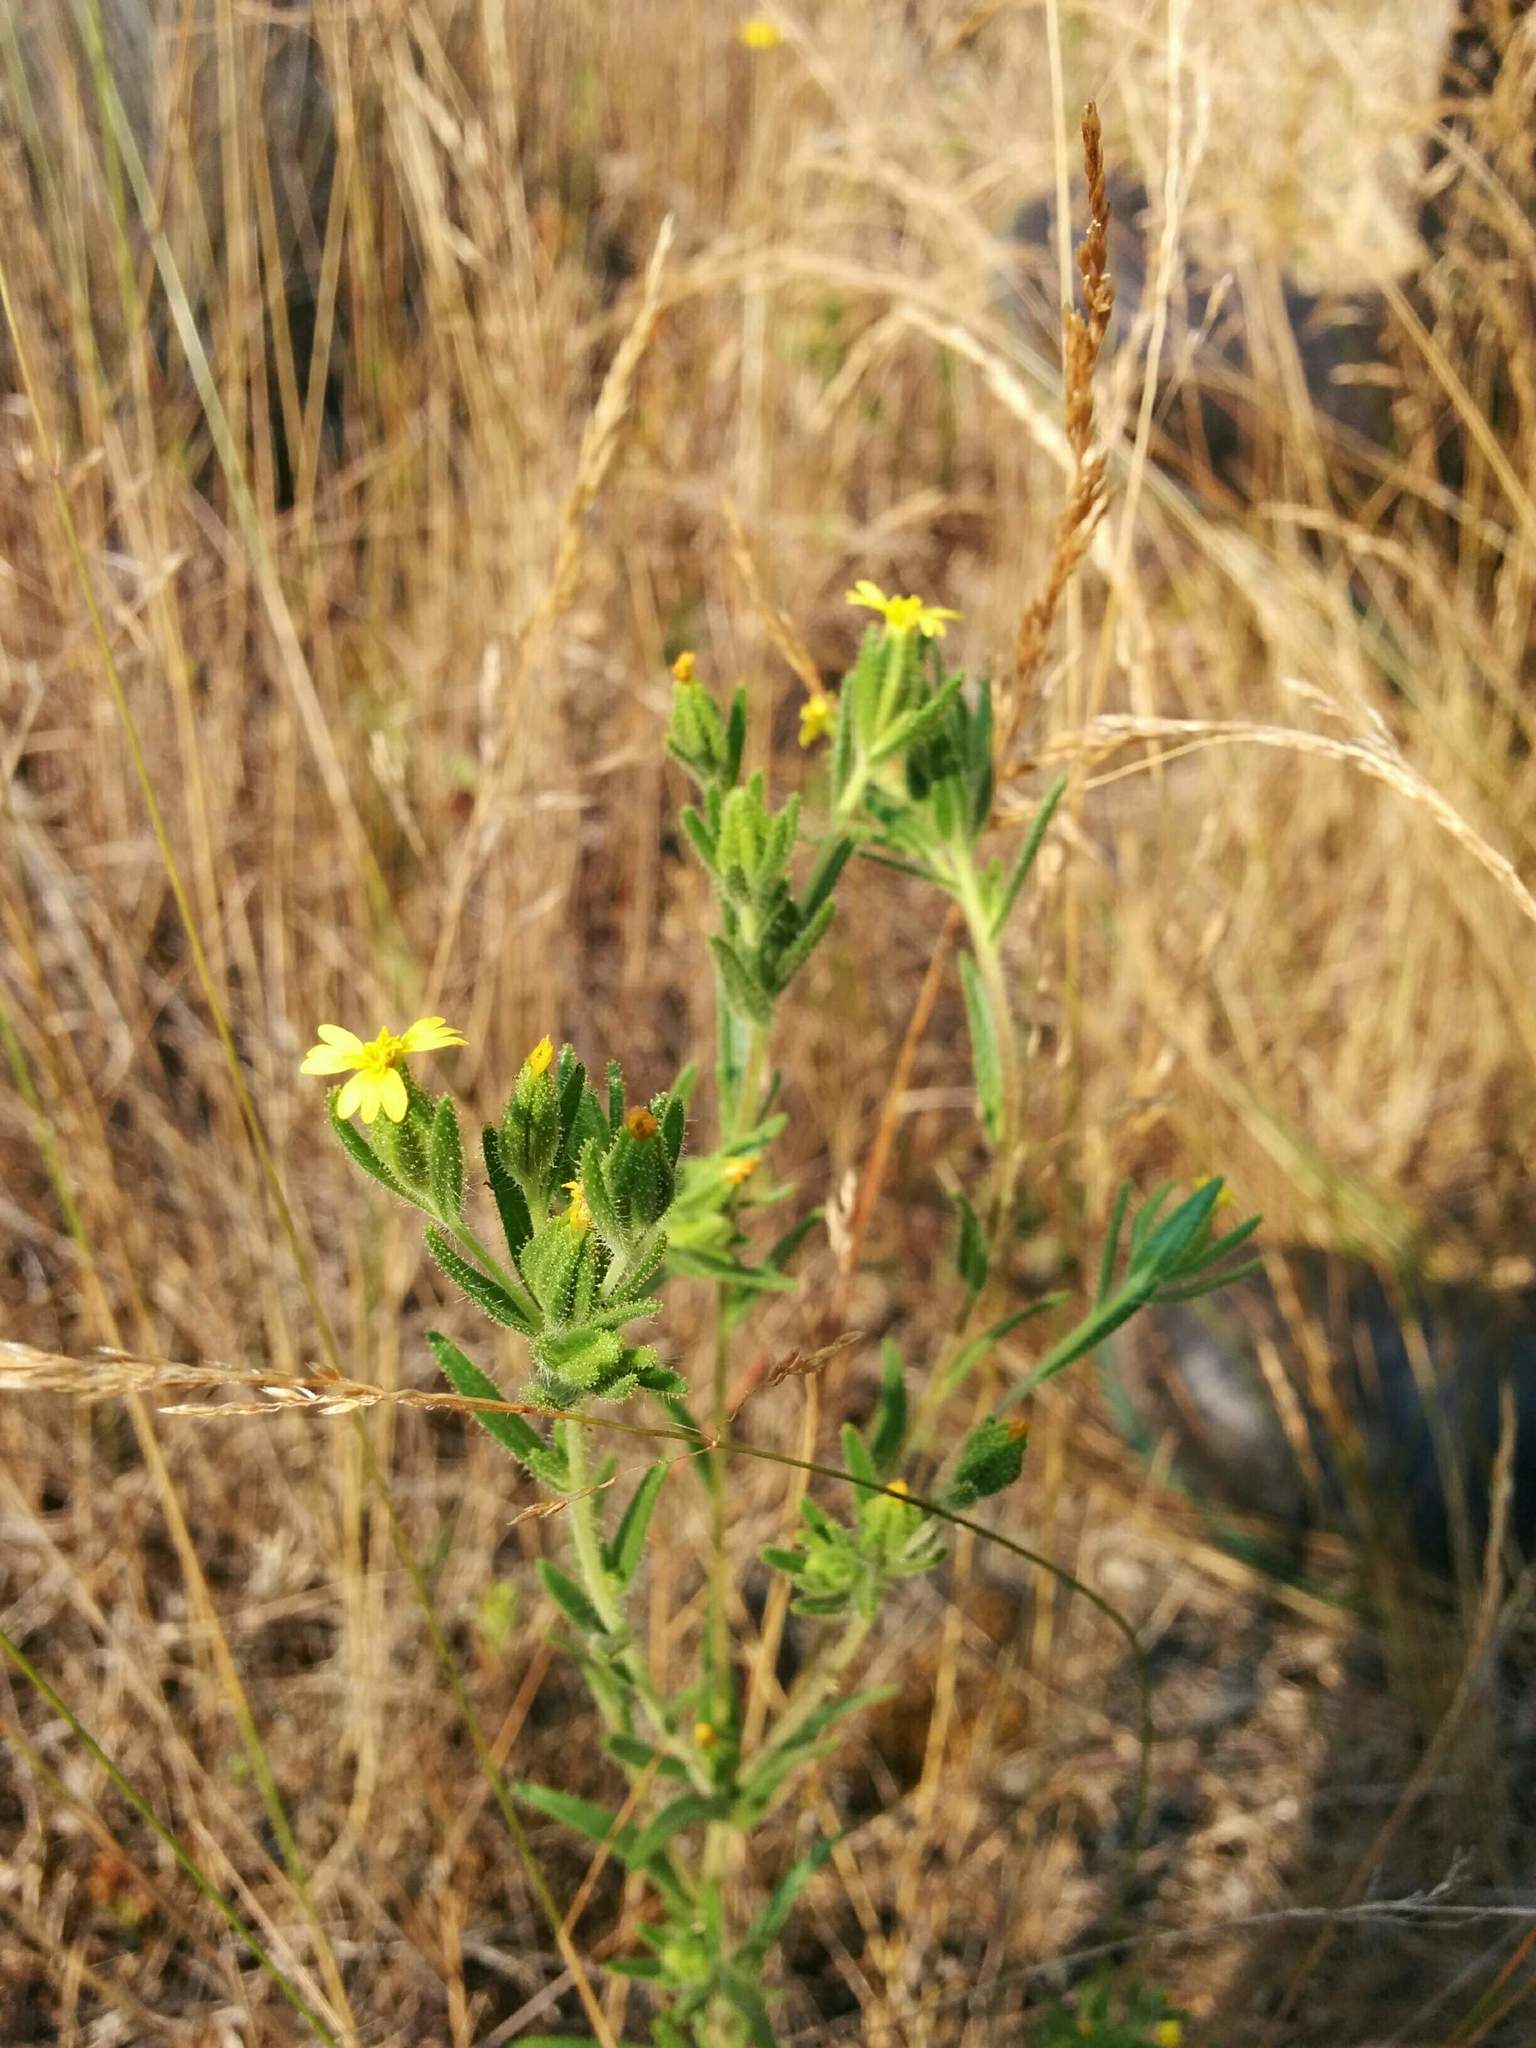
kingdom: Plantae
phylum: Tracheophyta
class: Magnoliopsida
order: Asterales
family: Asteraceae
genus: Madia
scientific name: Madia glomerata
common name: Mountain tarweed
